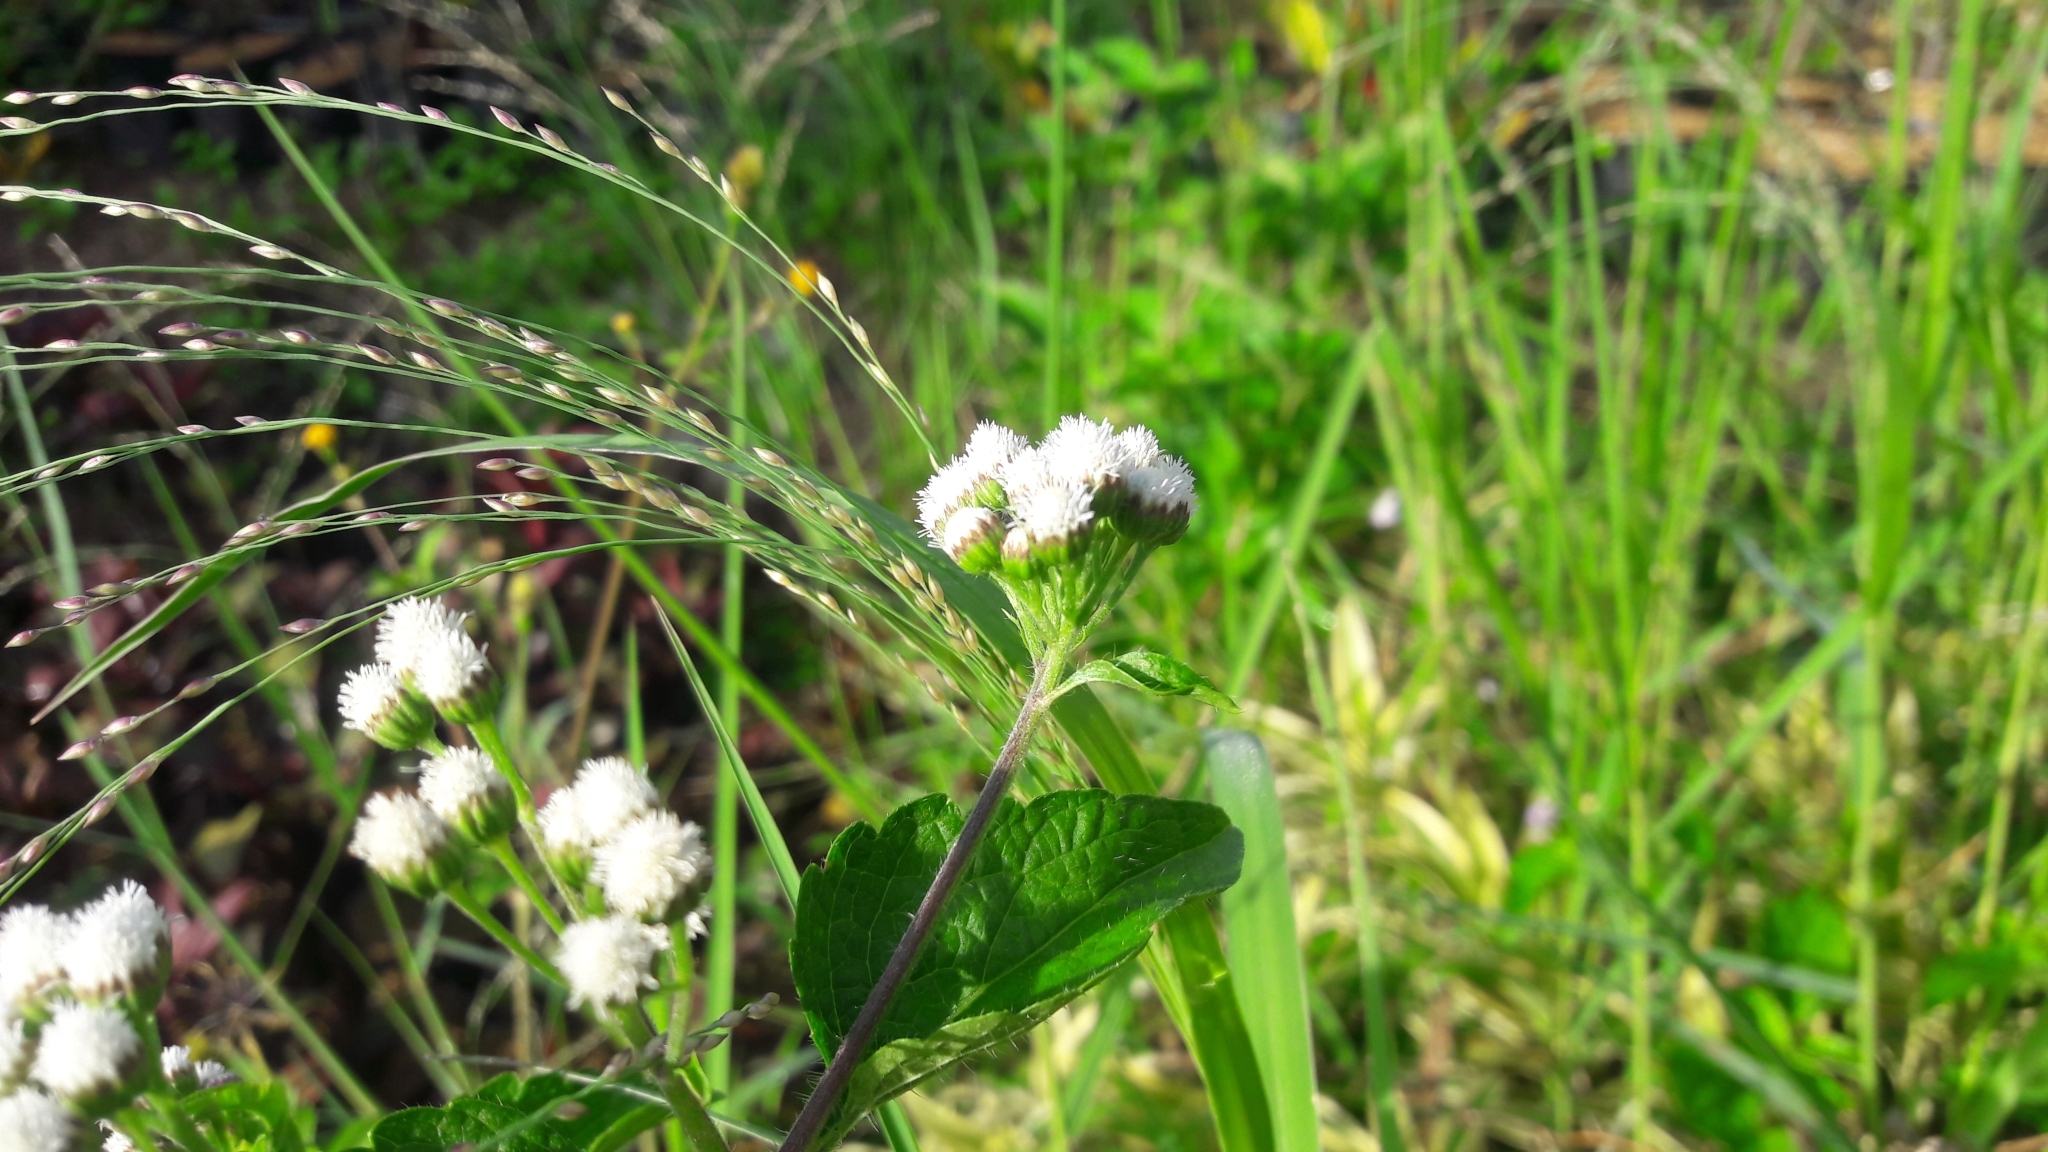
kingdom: Plantae
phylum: Tracheophyta
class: Magnoliopsida
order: Asterales
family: Asteraceae
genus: Ageratum
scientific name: Ageratum conyzoides
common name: Tropical whiteweed
